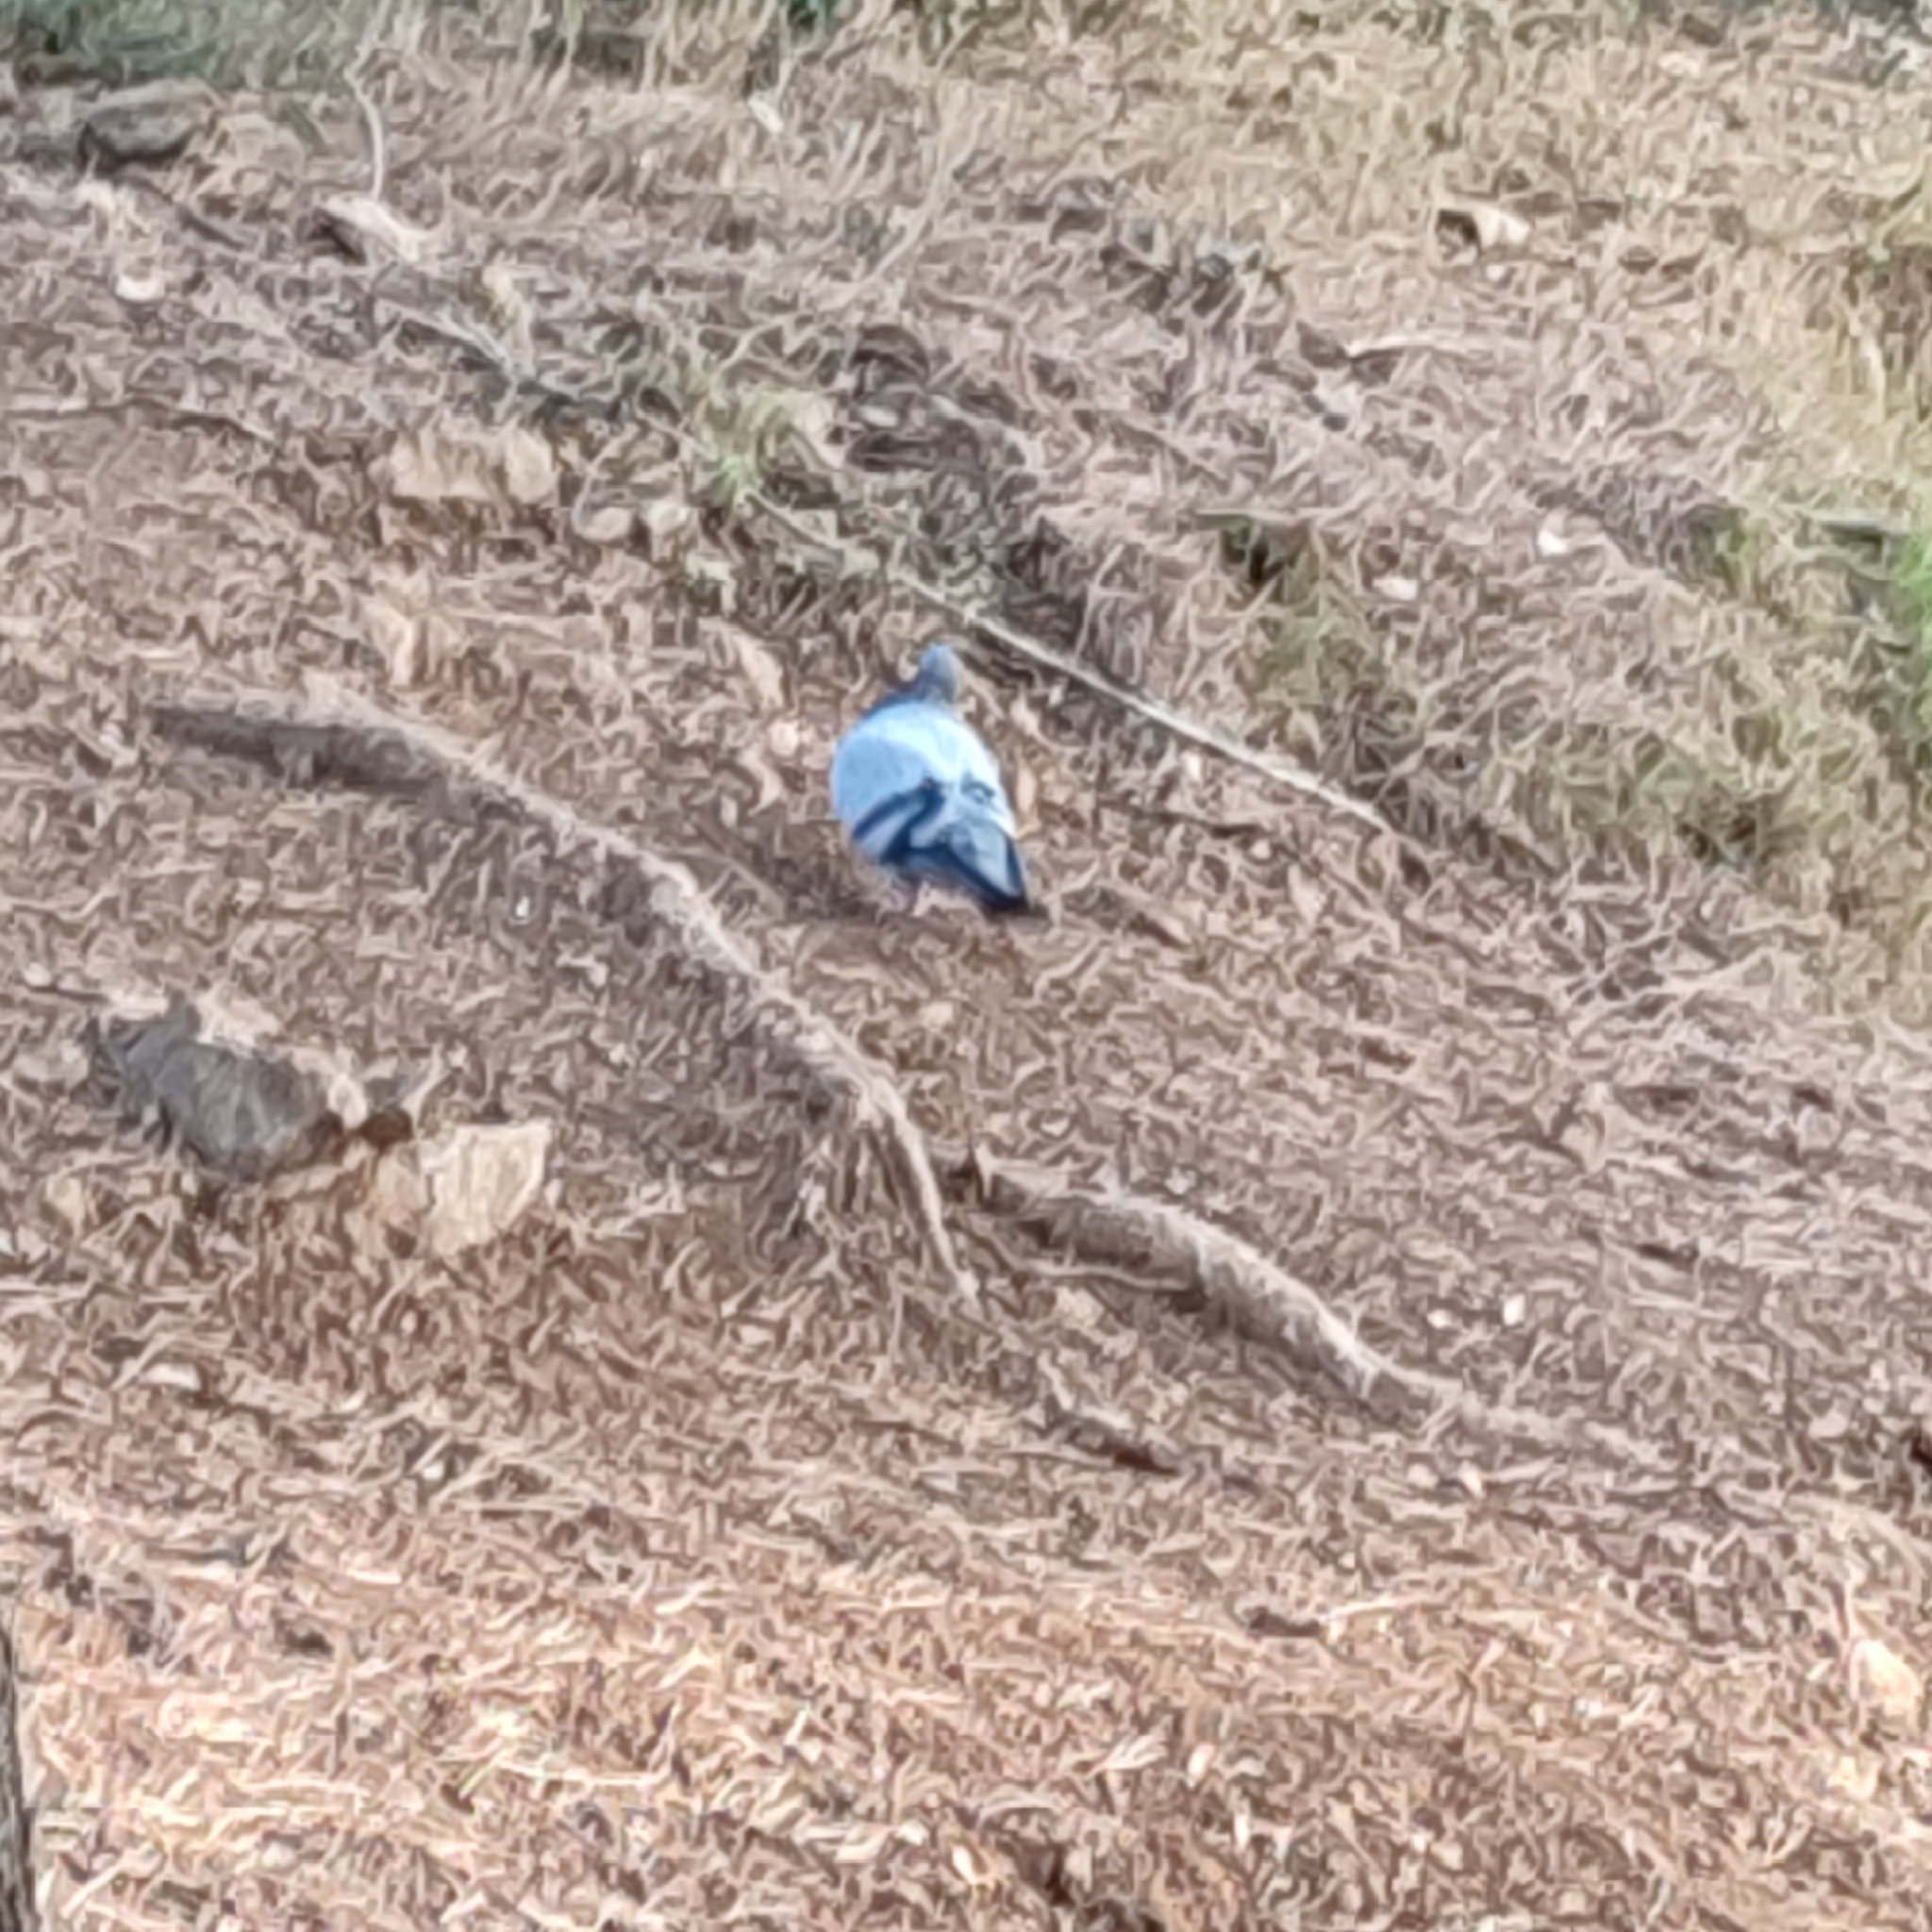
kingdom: Animalia
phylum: Chordata
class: Aves
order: Columbiformes
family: Columbidae
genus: Columba
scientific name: Columba livia
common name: Rock pigeon
